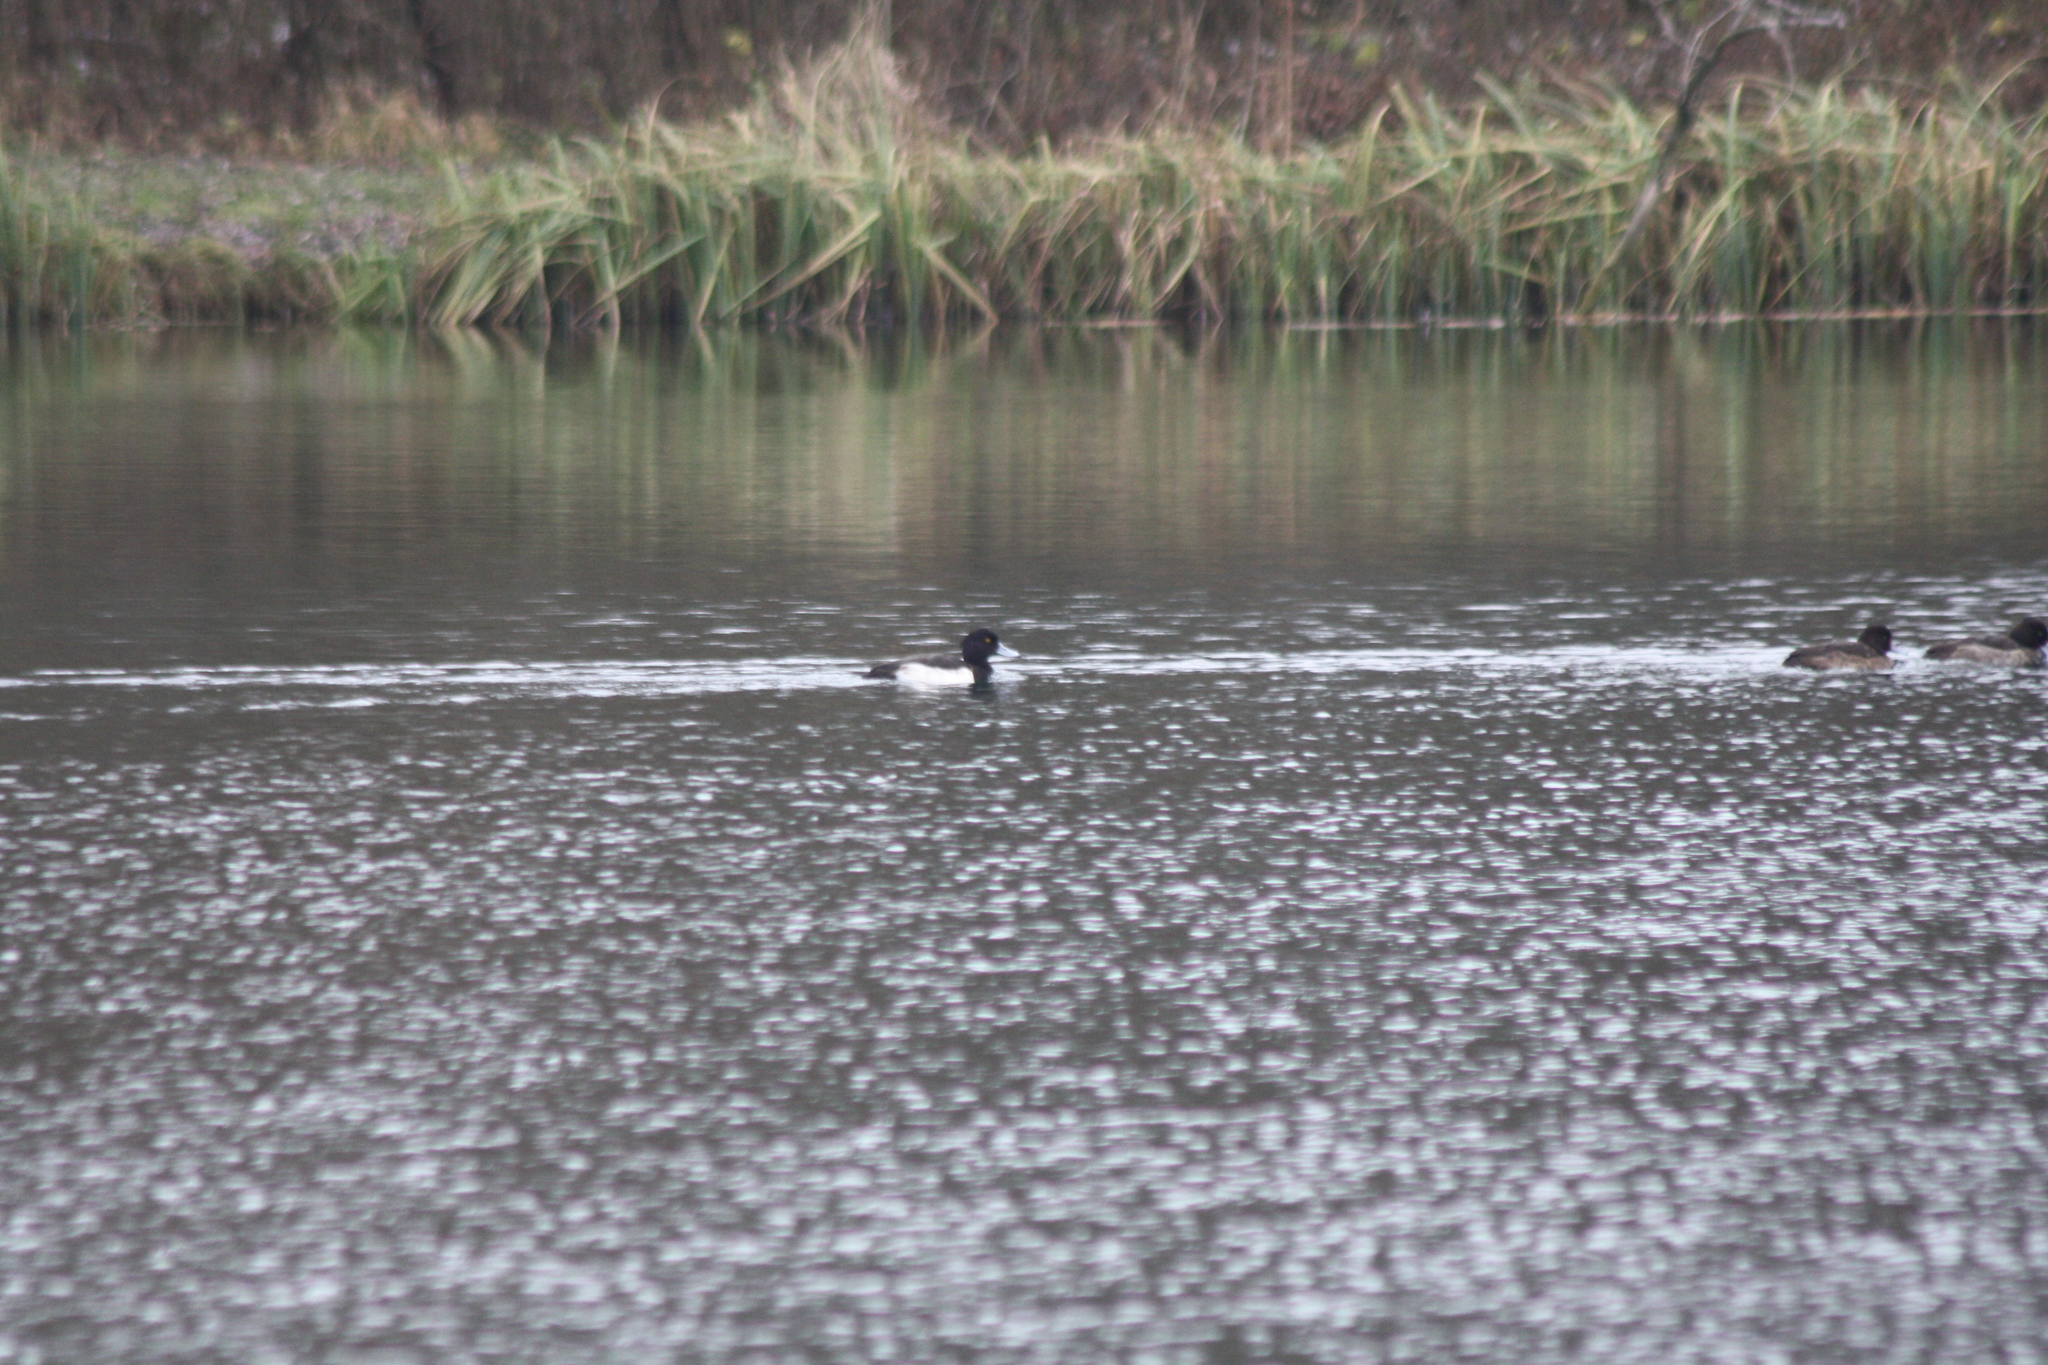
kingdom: Animalia
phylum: Chordata
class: Aves
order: Anseriformes
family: Anatidae
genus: Aythya
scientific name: Aythya fuligula
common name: Tufted duck
